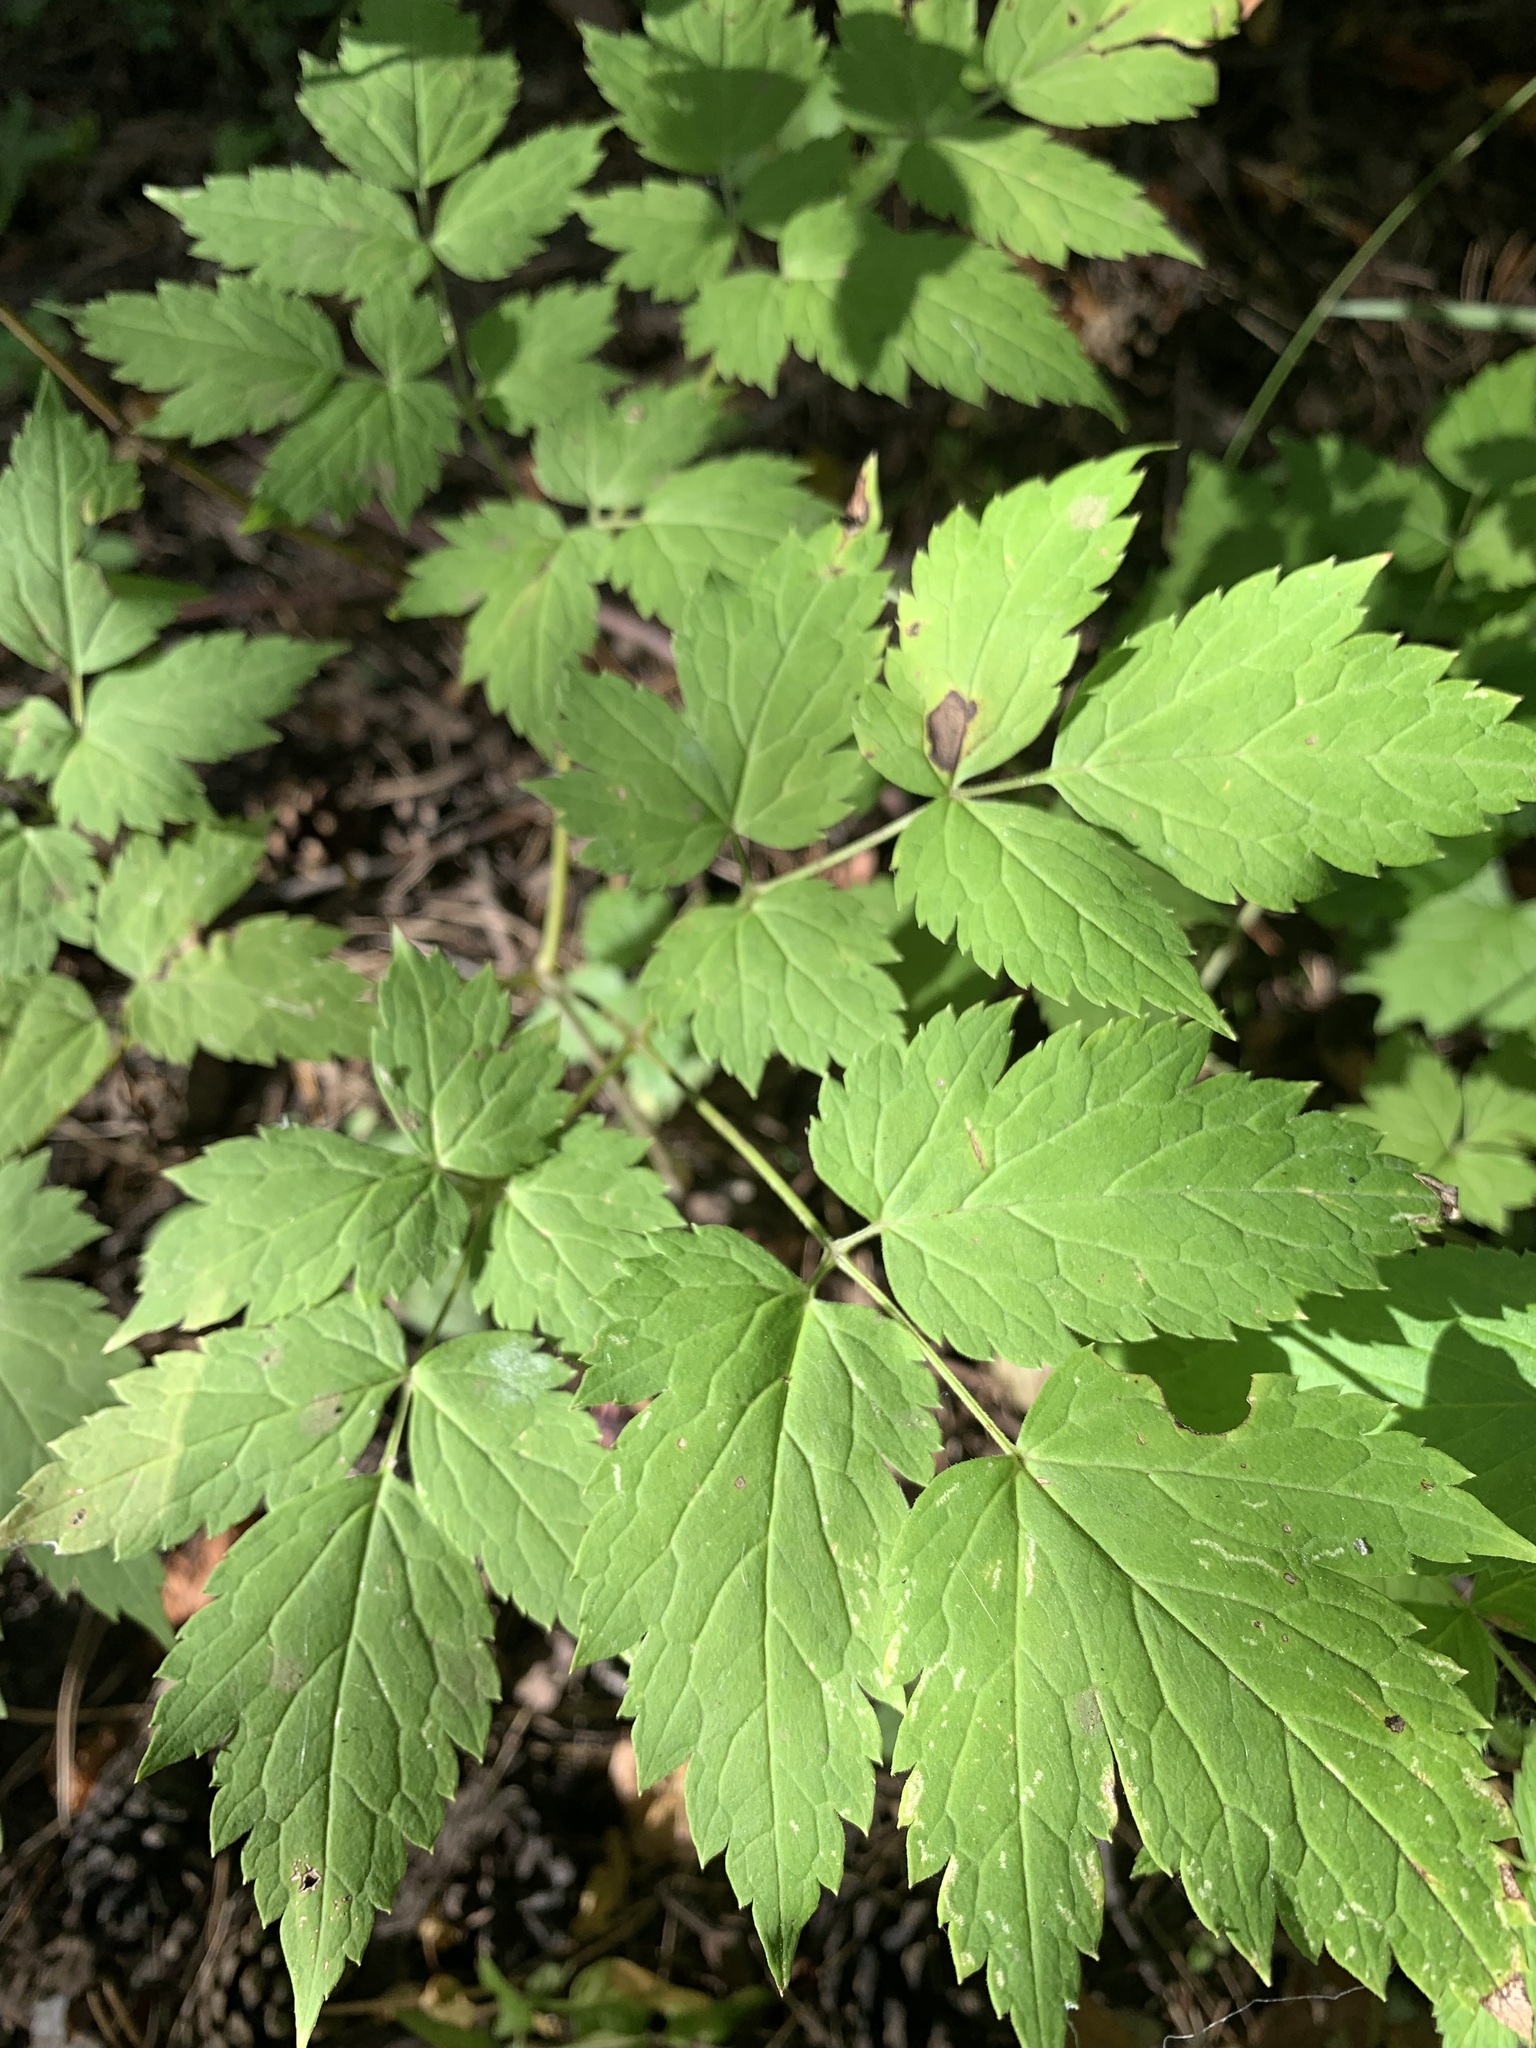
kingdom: Plantae
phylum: Tracheophyta
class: Magnoliopsida
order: Ranunculales
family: Ranunculaceae
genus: Actaea
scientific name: Actaea erythrocarpa
